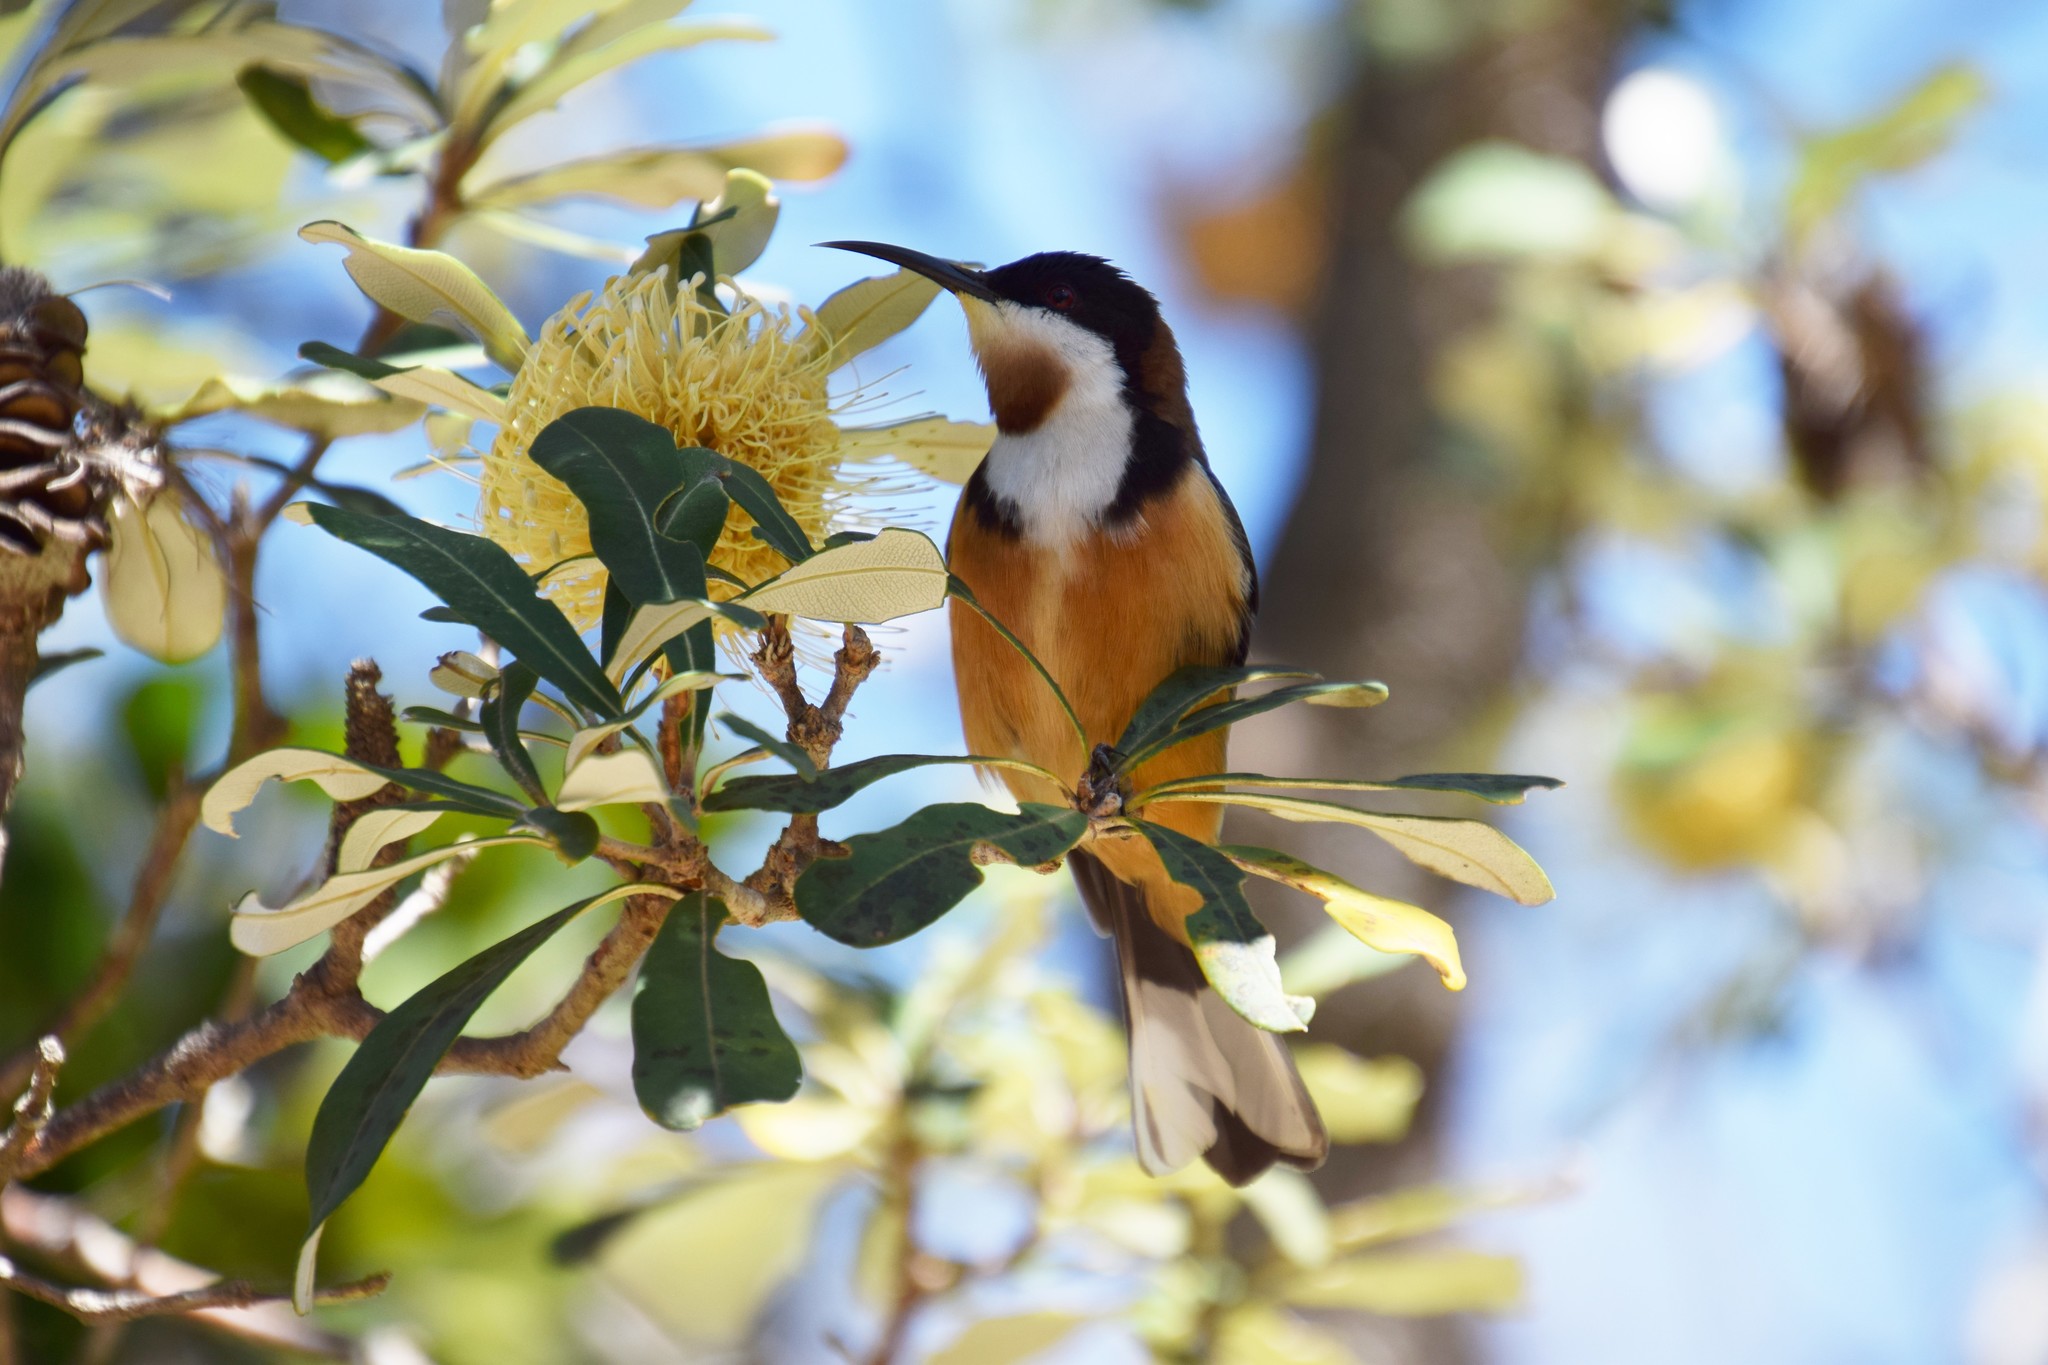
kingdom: Animalia
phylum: Chordata
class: Aves
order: Passeriformes
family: Meliphagidae
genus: Acanthorhynchus
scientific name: Acanthorhynchus tenuirostris
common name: Eastern spinebill
